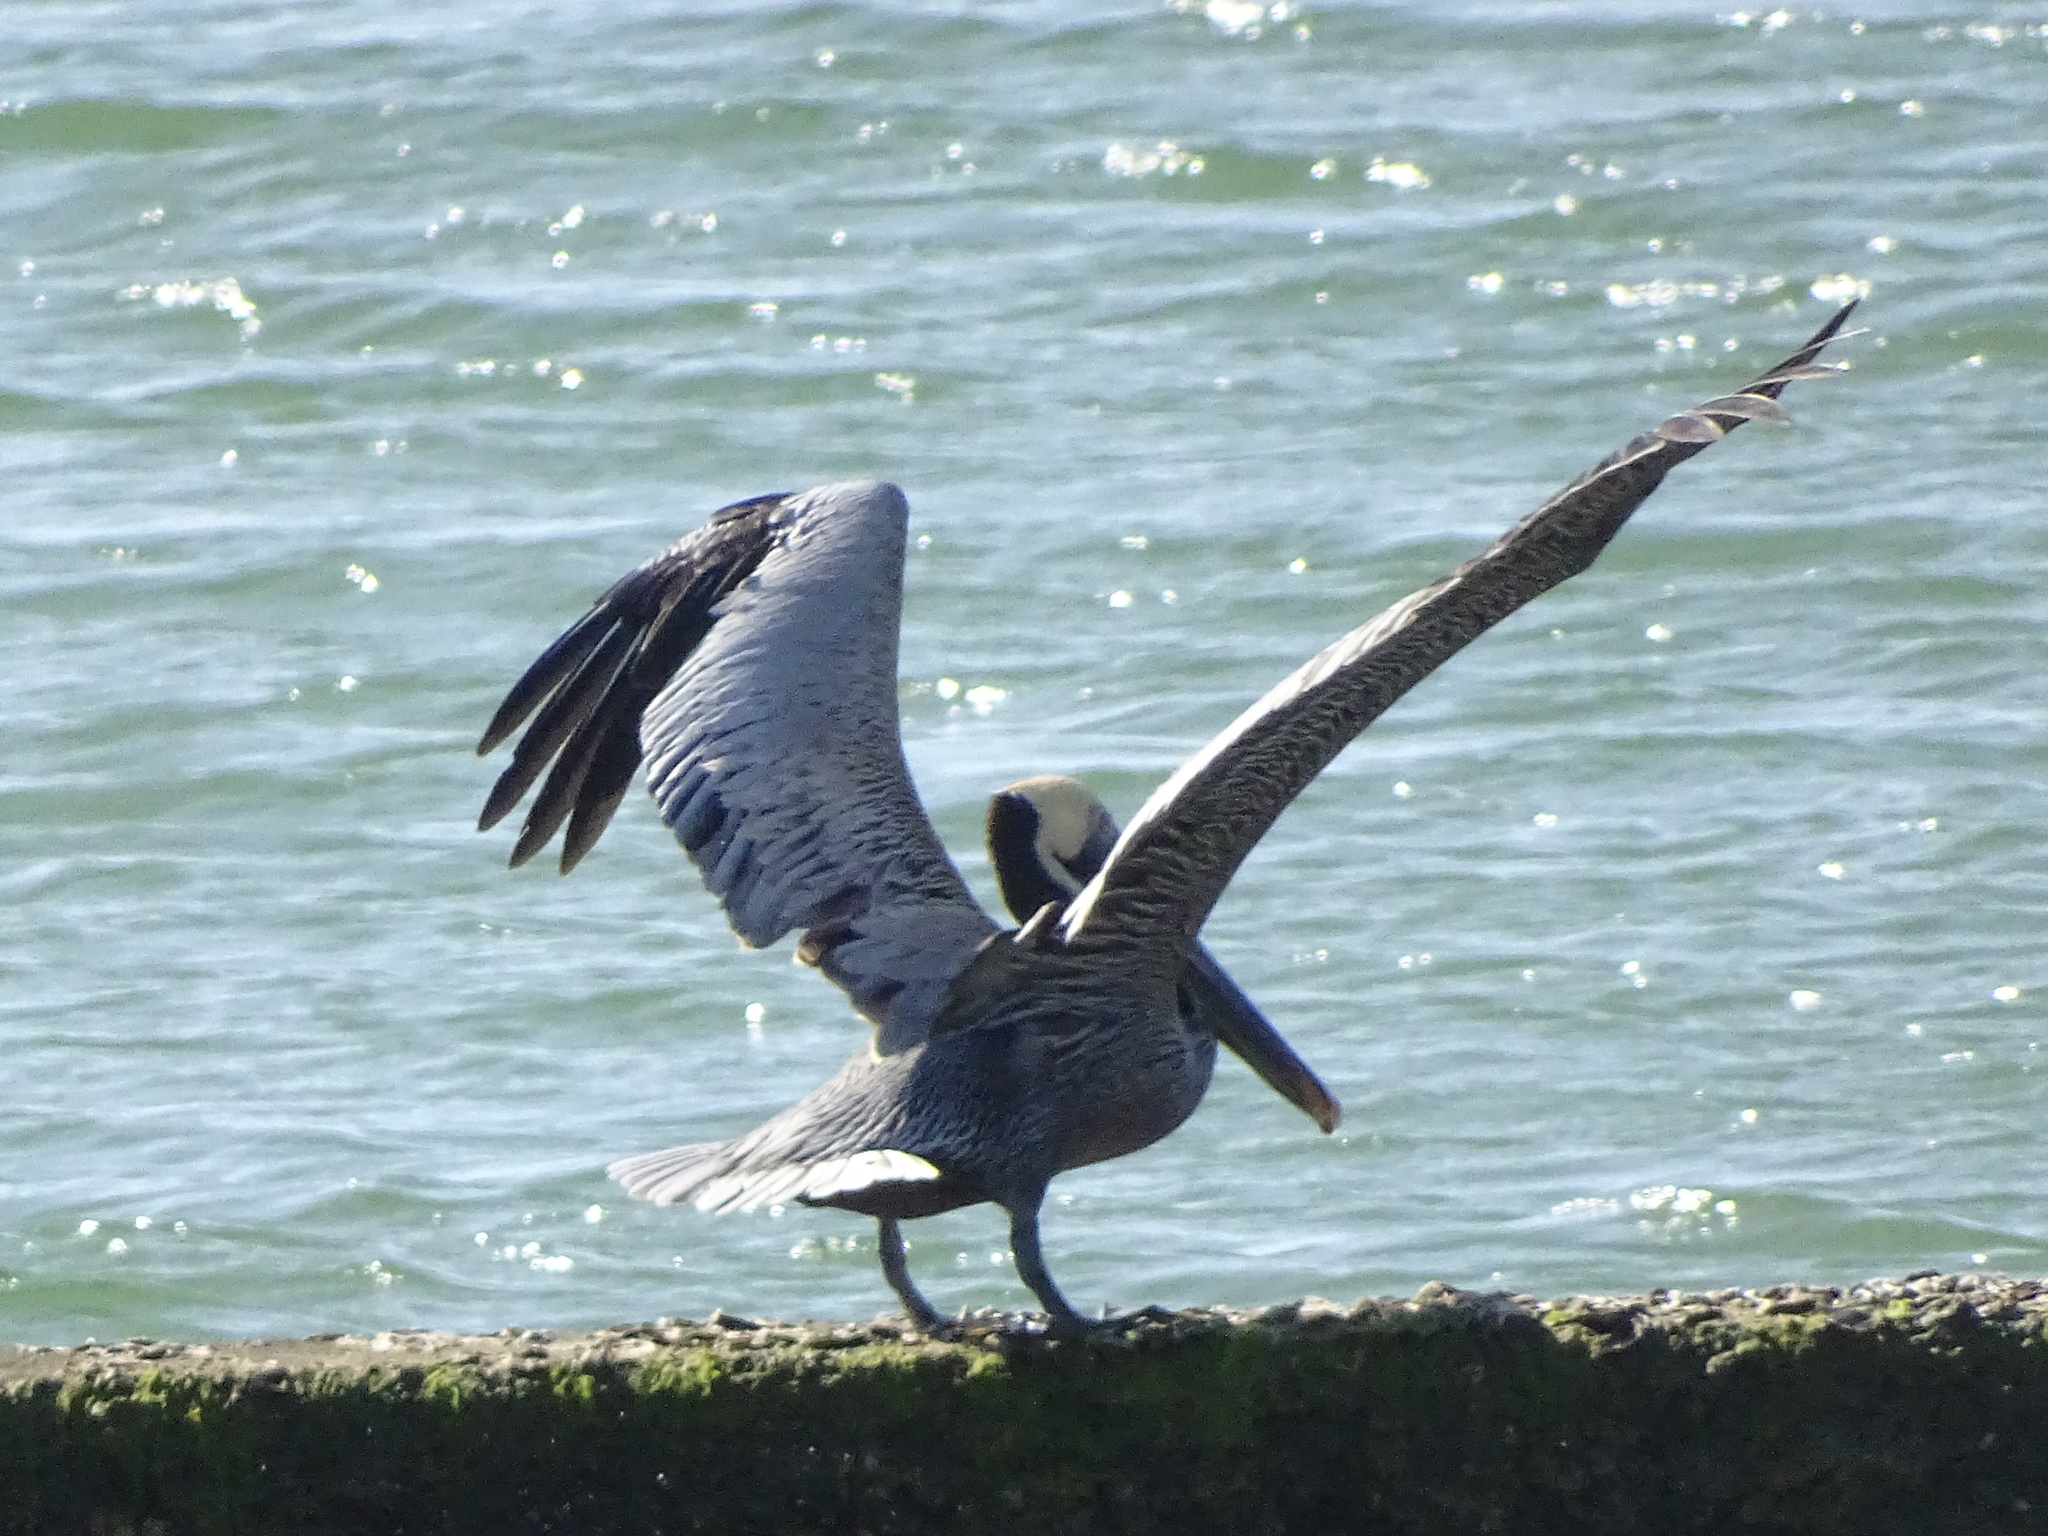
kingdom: Animalia
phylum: Chordata
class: Aves
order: Pelecaniformes
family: Pelecanidae
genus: Pelecanus
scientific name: Pelecanus occidentalis
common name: Brown pelican
